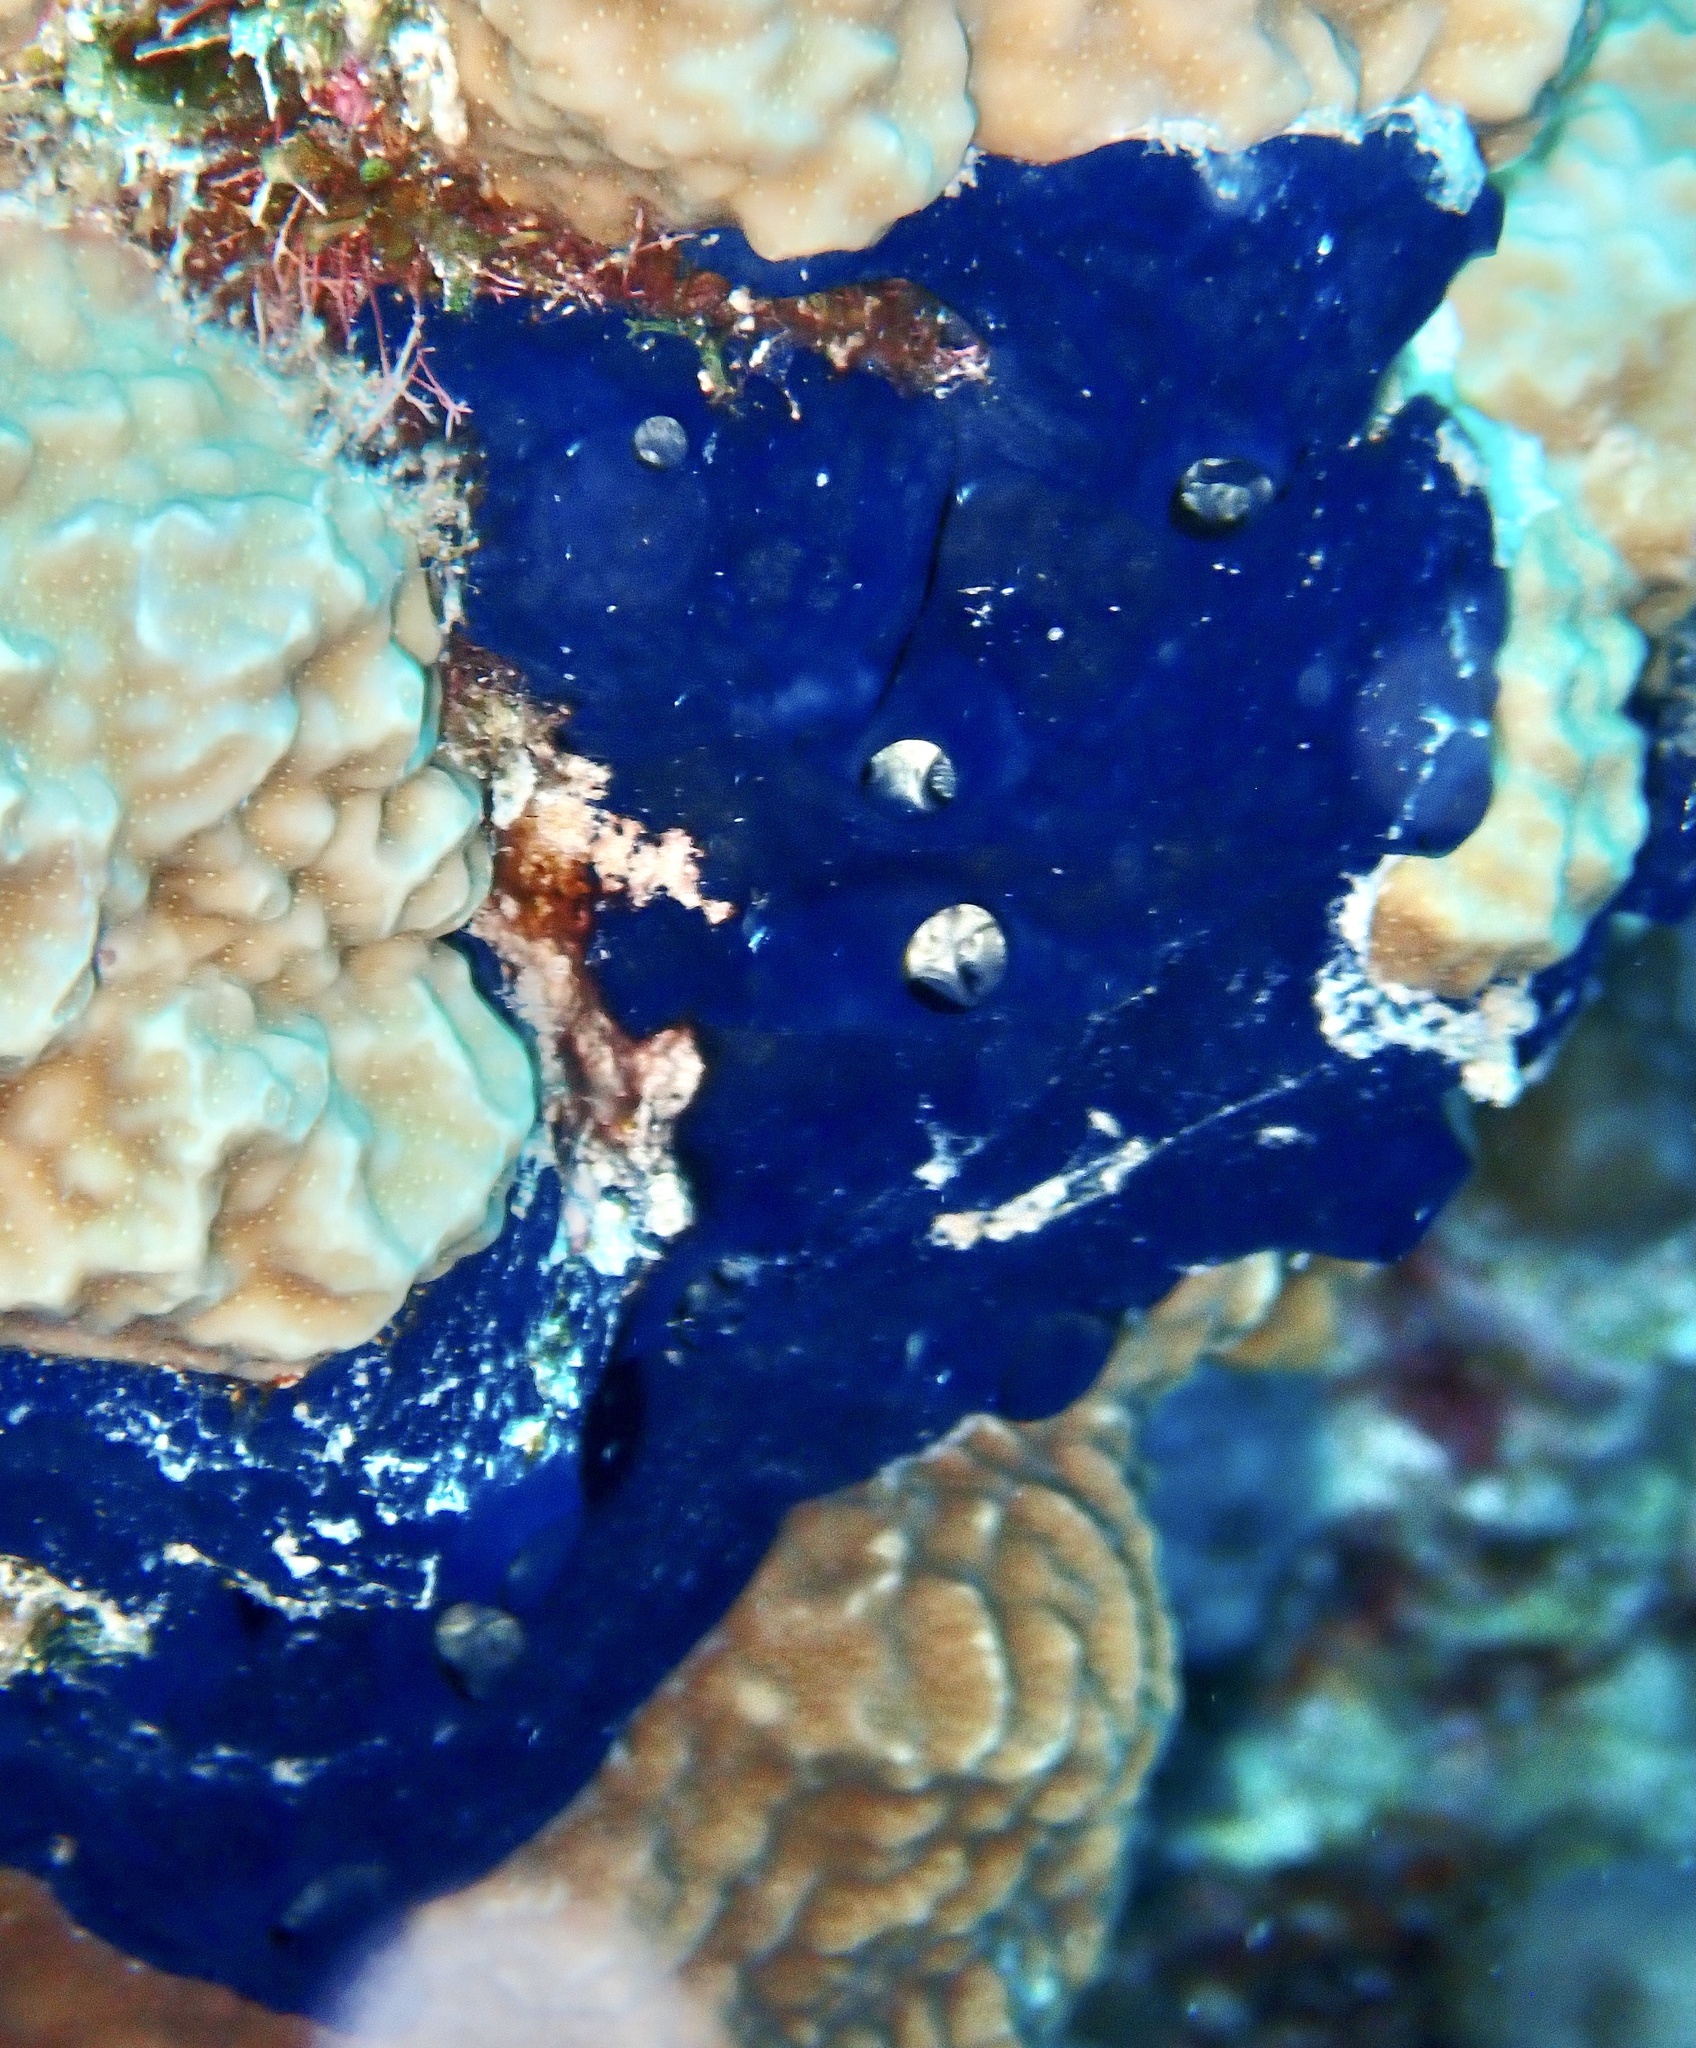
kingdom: Animalia
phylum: Porifera
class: Demospongiae
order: Poecilosclerida
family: Hymedesmiidae
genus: Hemimycale
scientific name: Hemimycale arabica
